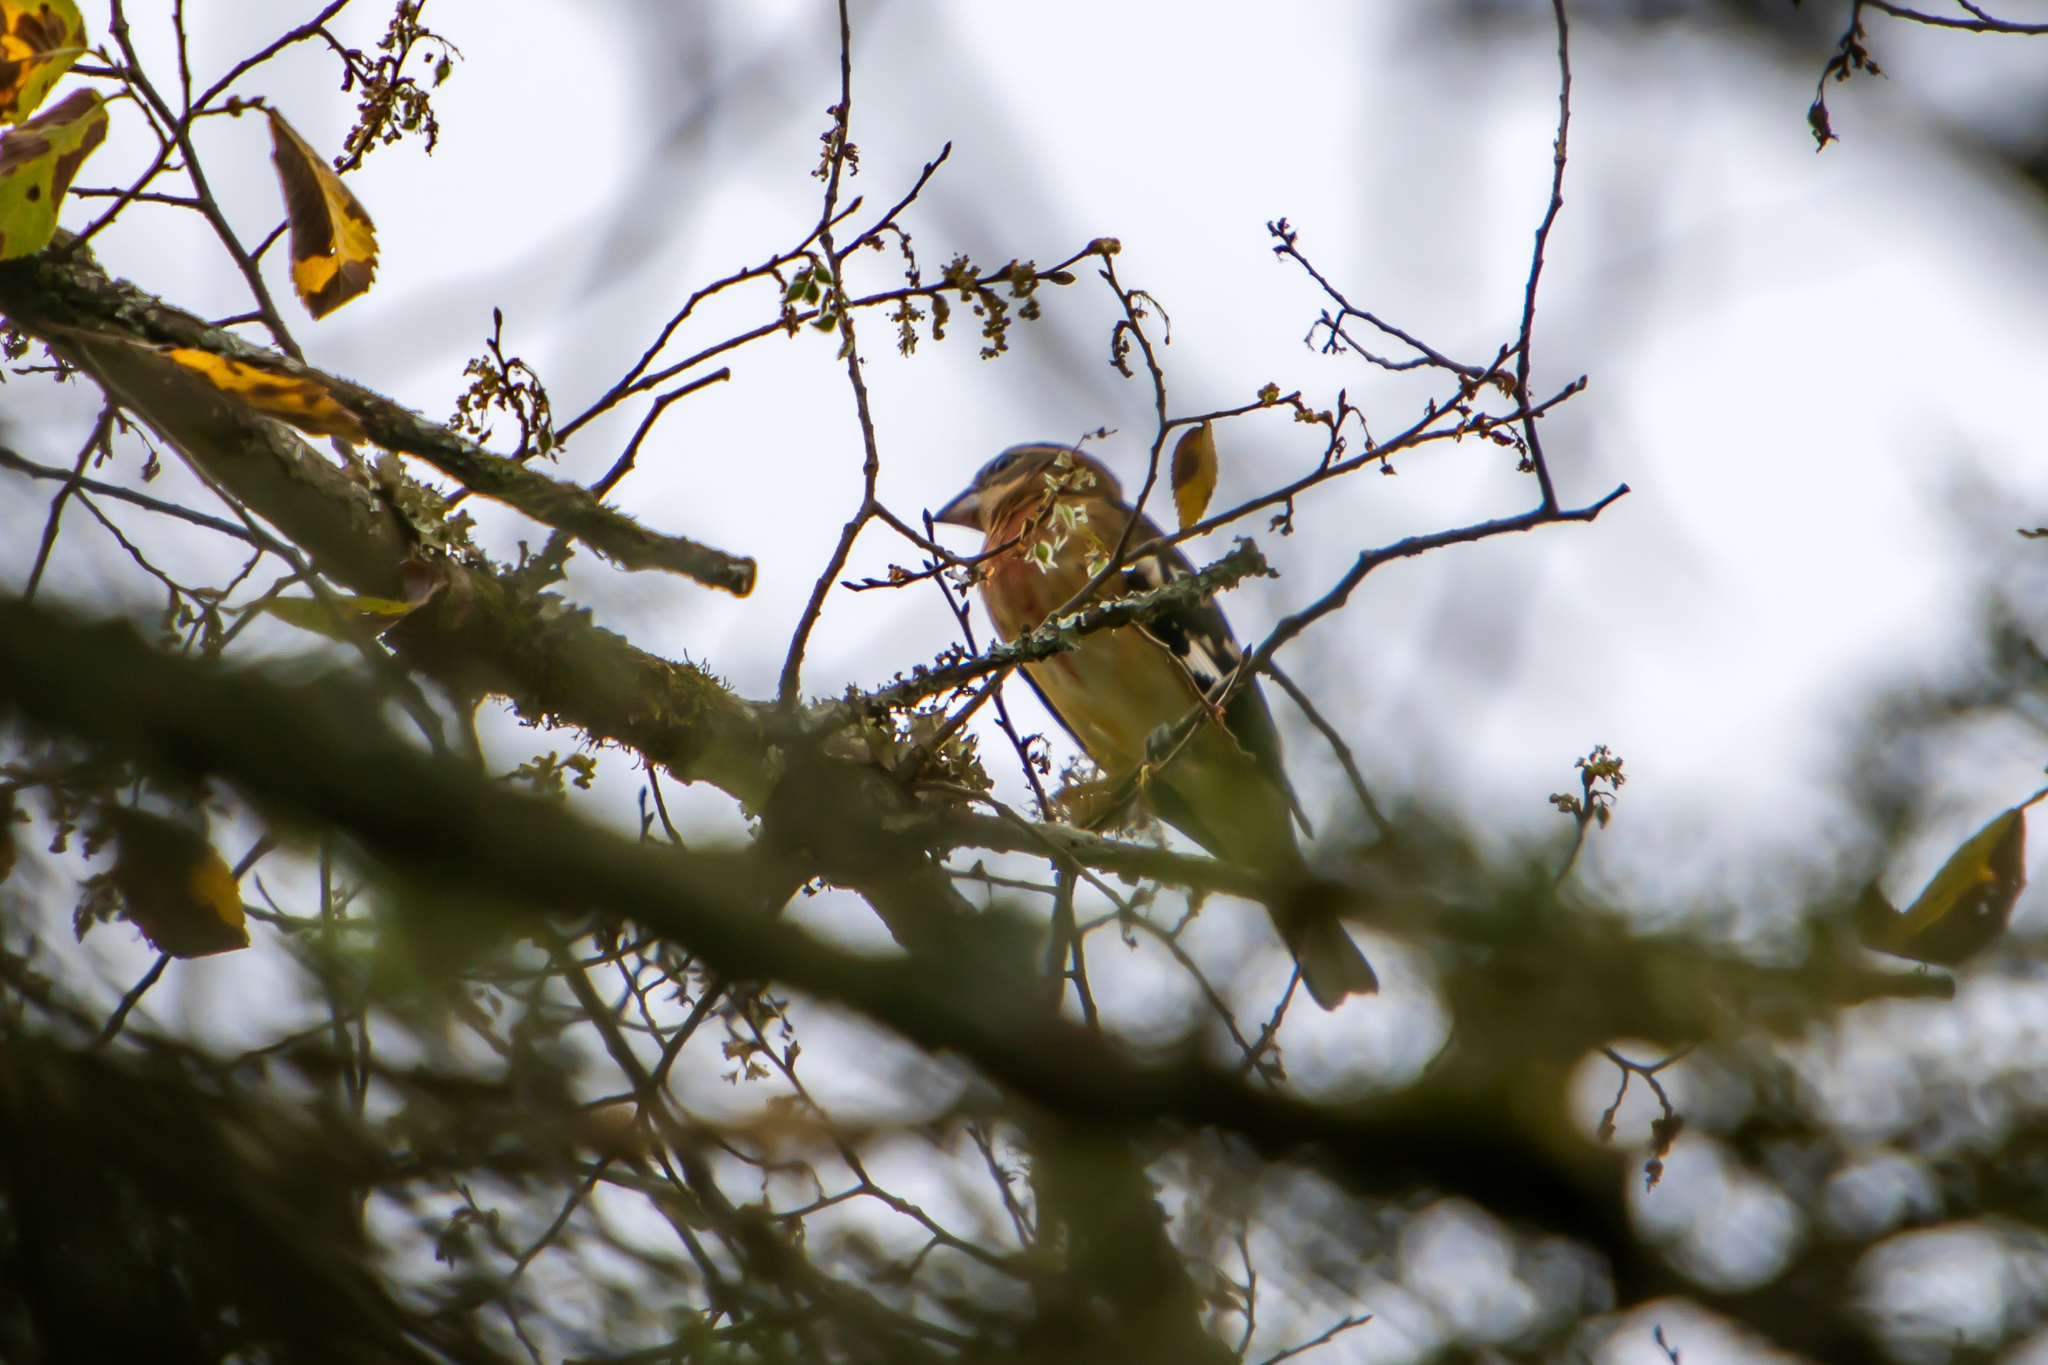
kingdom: Animalia
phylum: Chordata
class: Aves
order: Passeriformes
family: Cardinalidae
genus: Pheucticus
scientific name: Pheucticus ludovicianus
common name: Rose-breasted grosbeak
